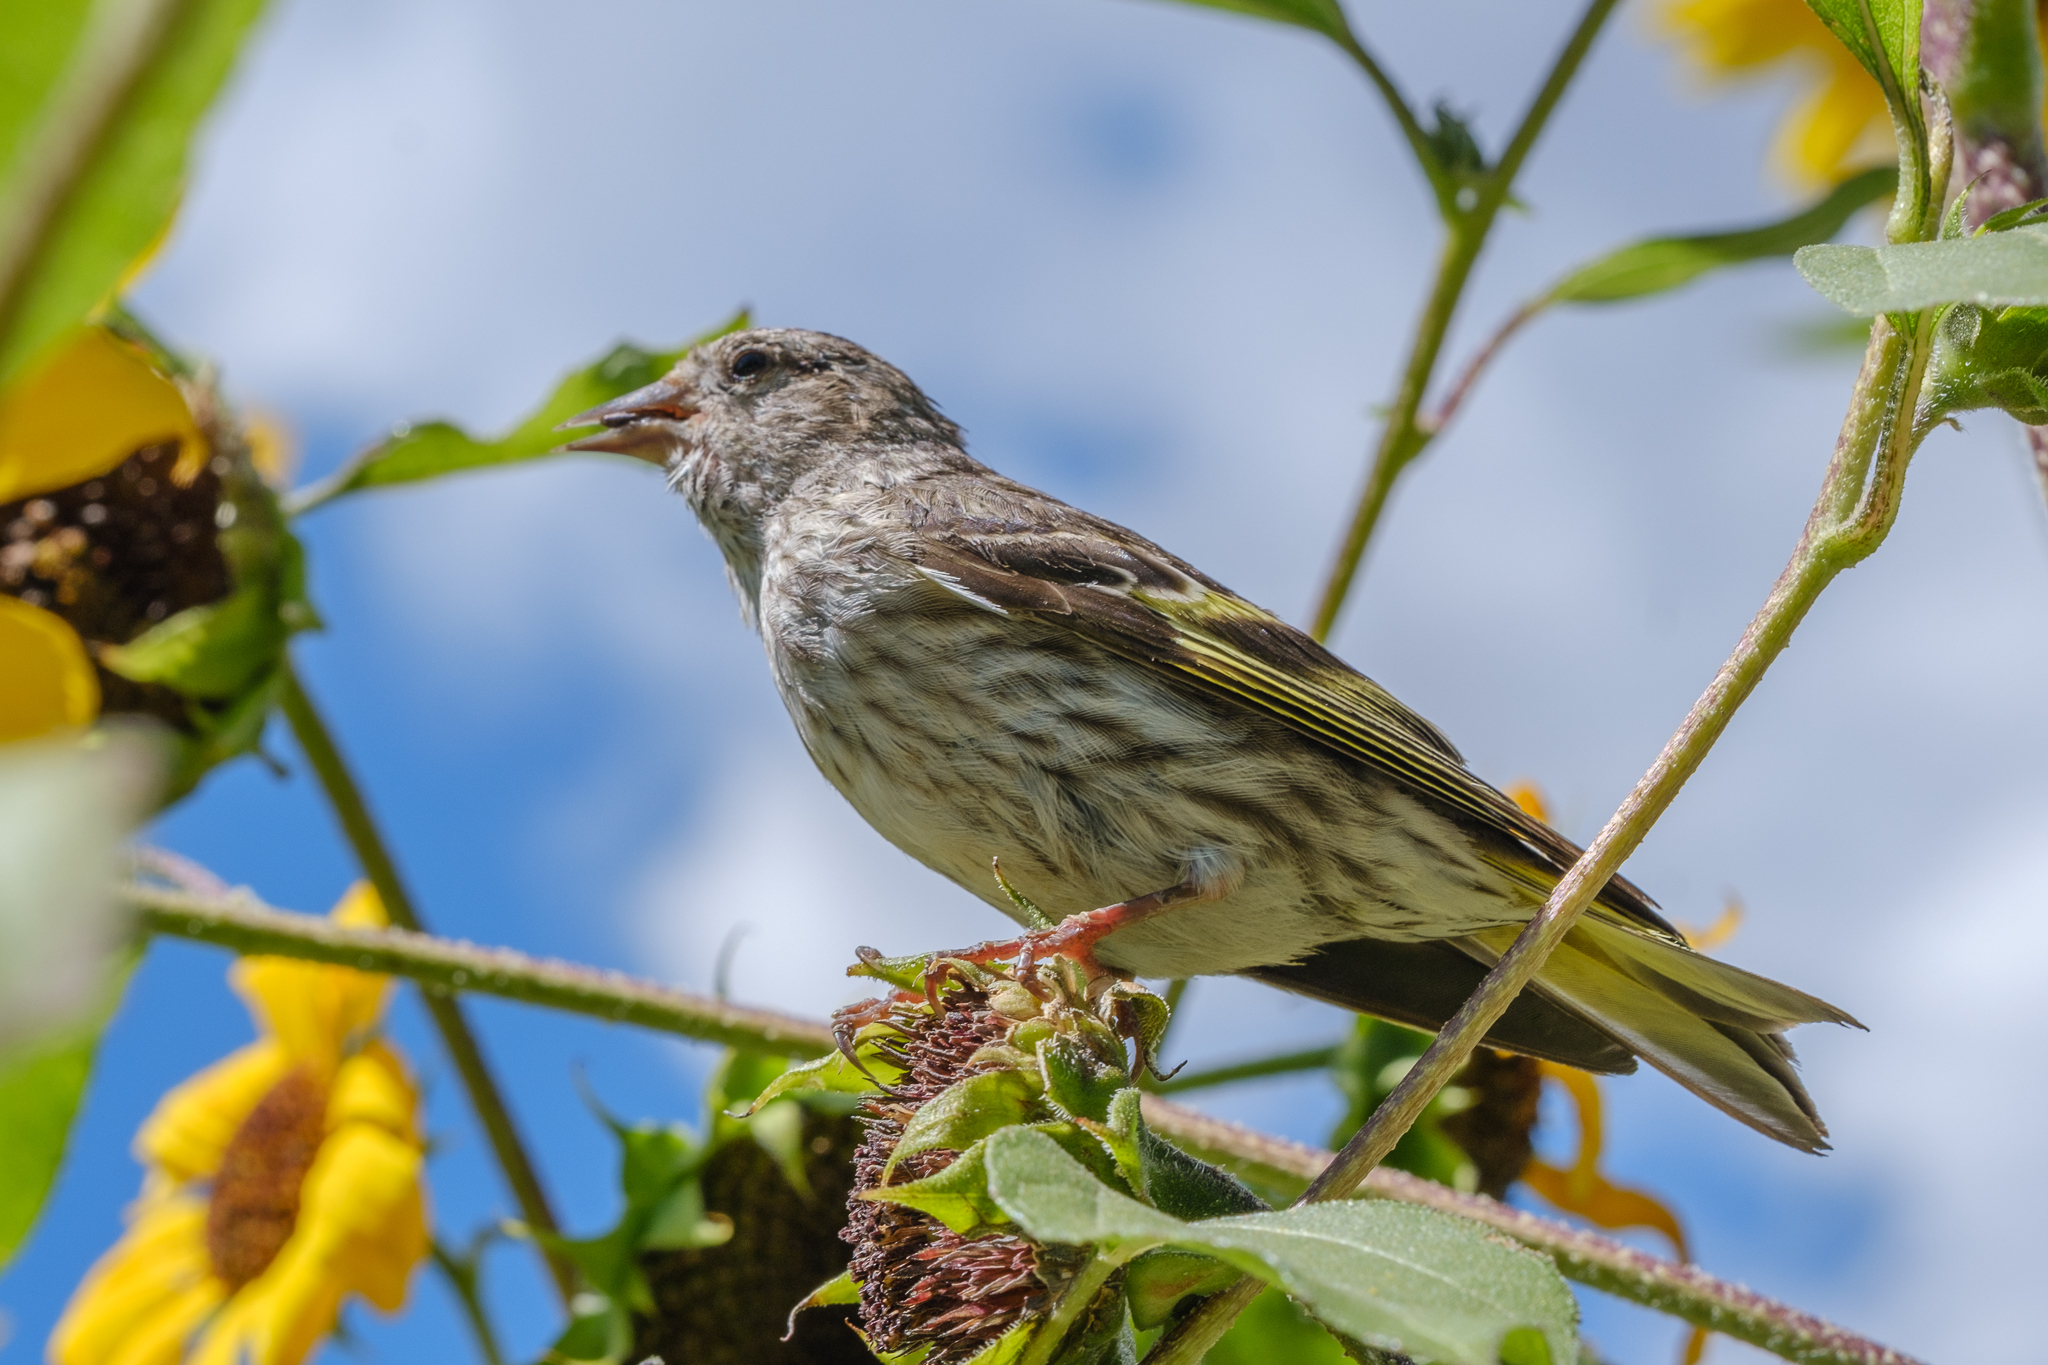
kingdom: Animalia
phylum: Chordata
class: Aves
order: Passeriformes
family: Fringillidae
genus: Spinus
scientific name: Spinus pinus
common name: Pine siskin
